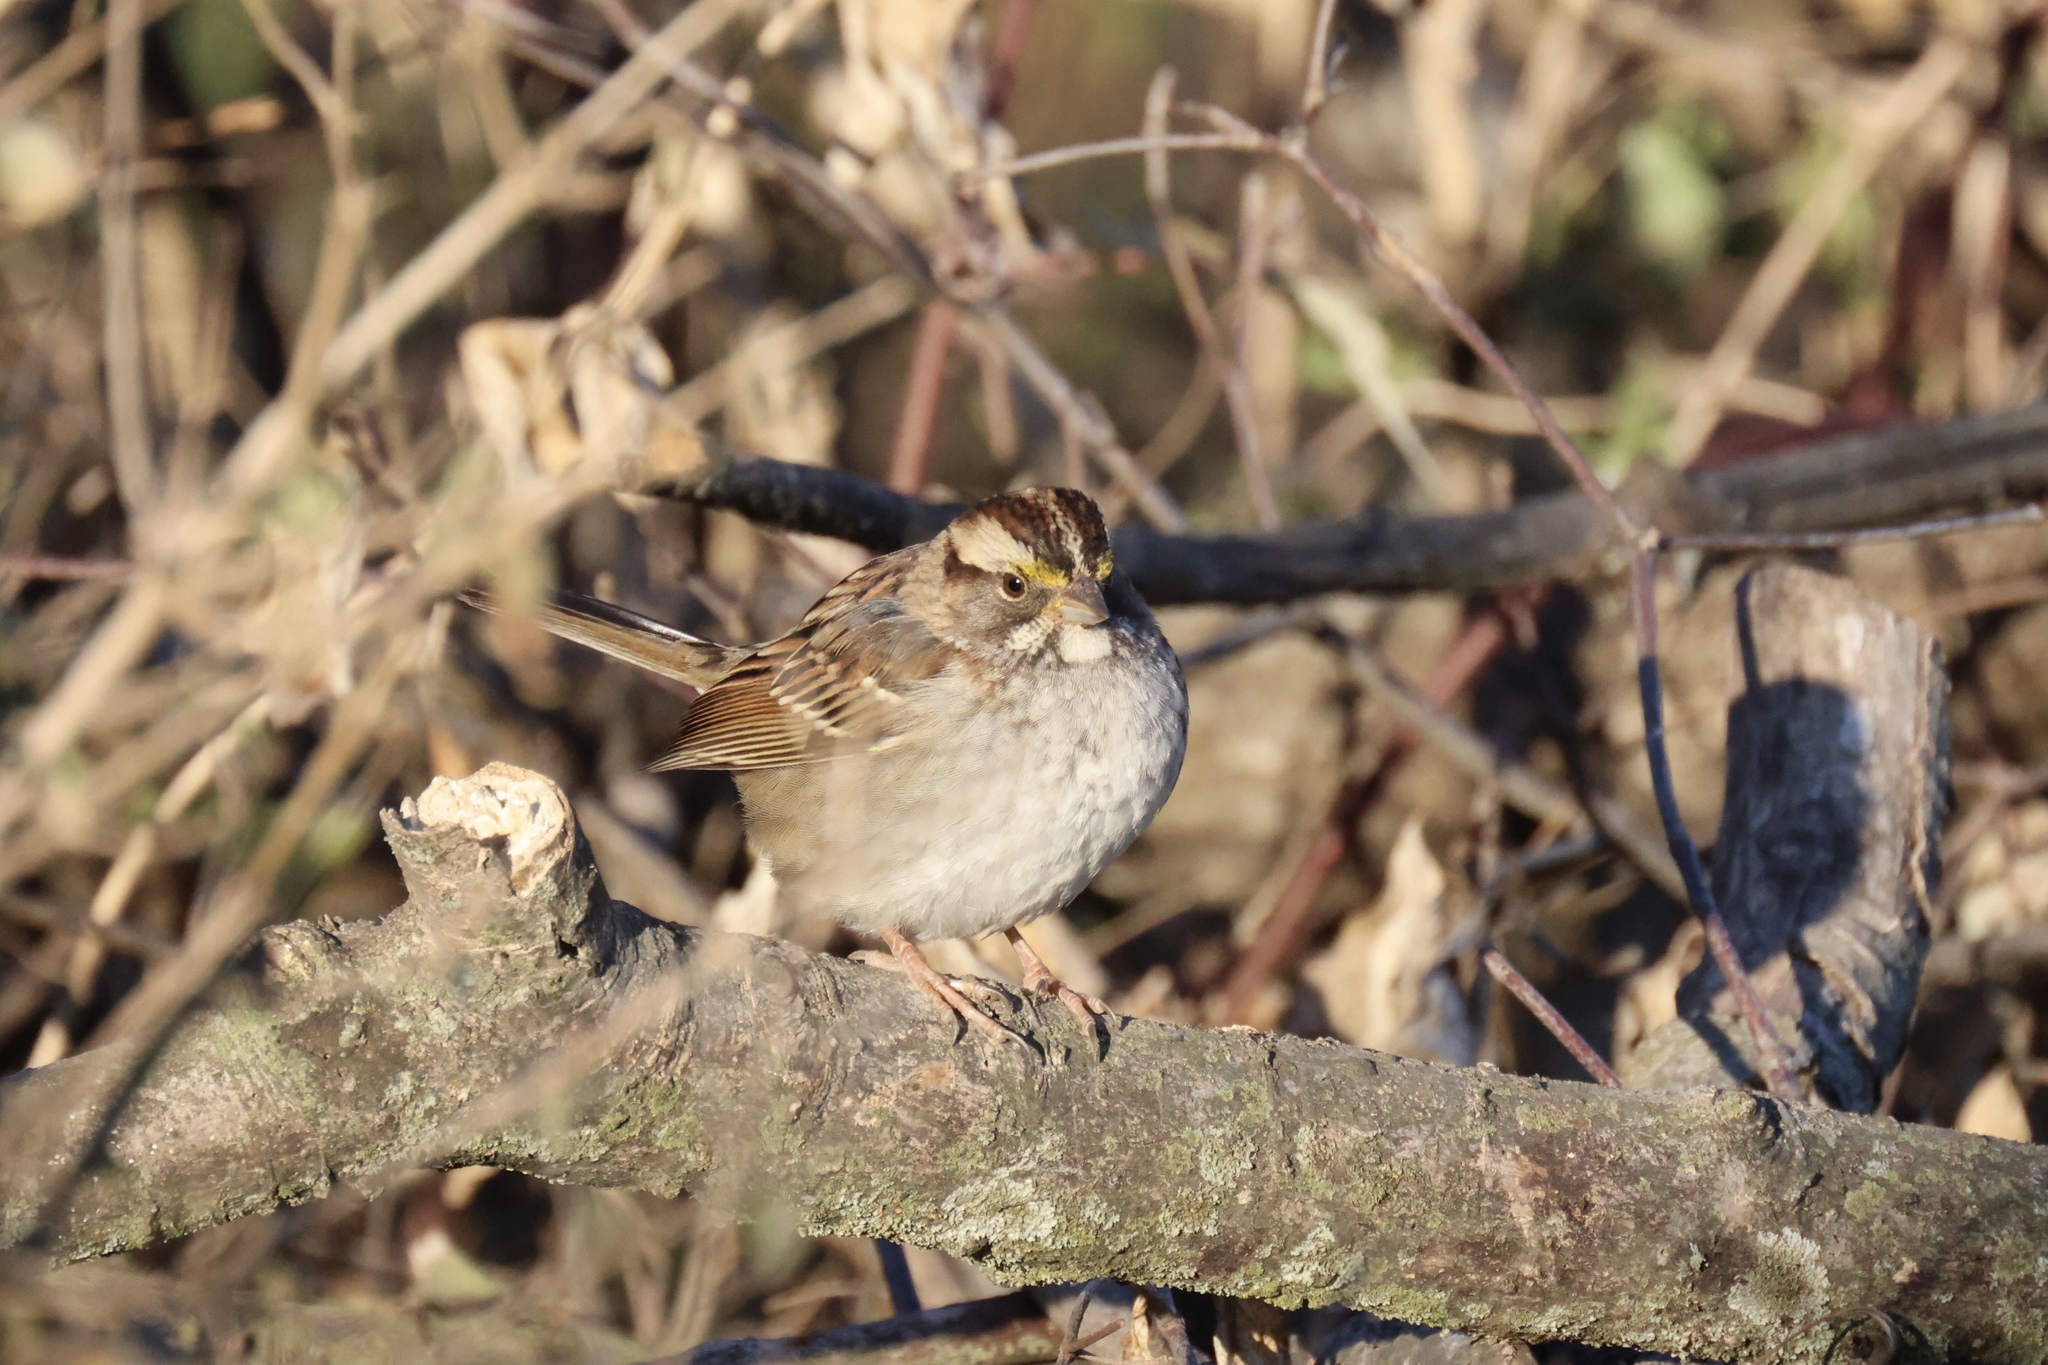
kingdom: Animalia
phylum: Chordata
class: Aves
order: Passeriformes
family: Passerellidae
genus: Zonotrichia
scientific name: Zonotrichia albicollis
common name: White-throated sparrow
